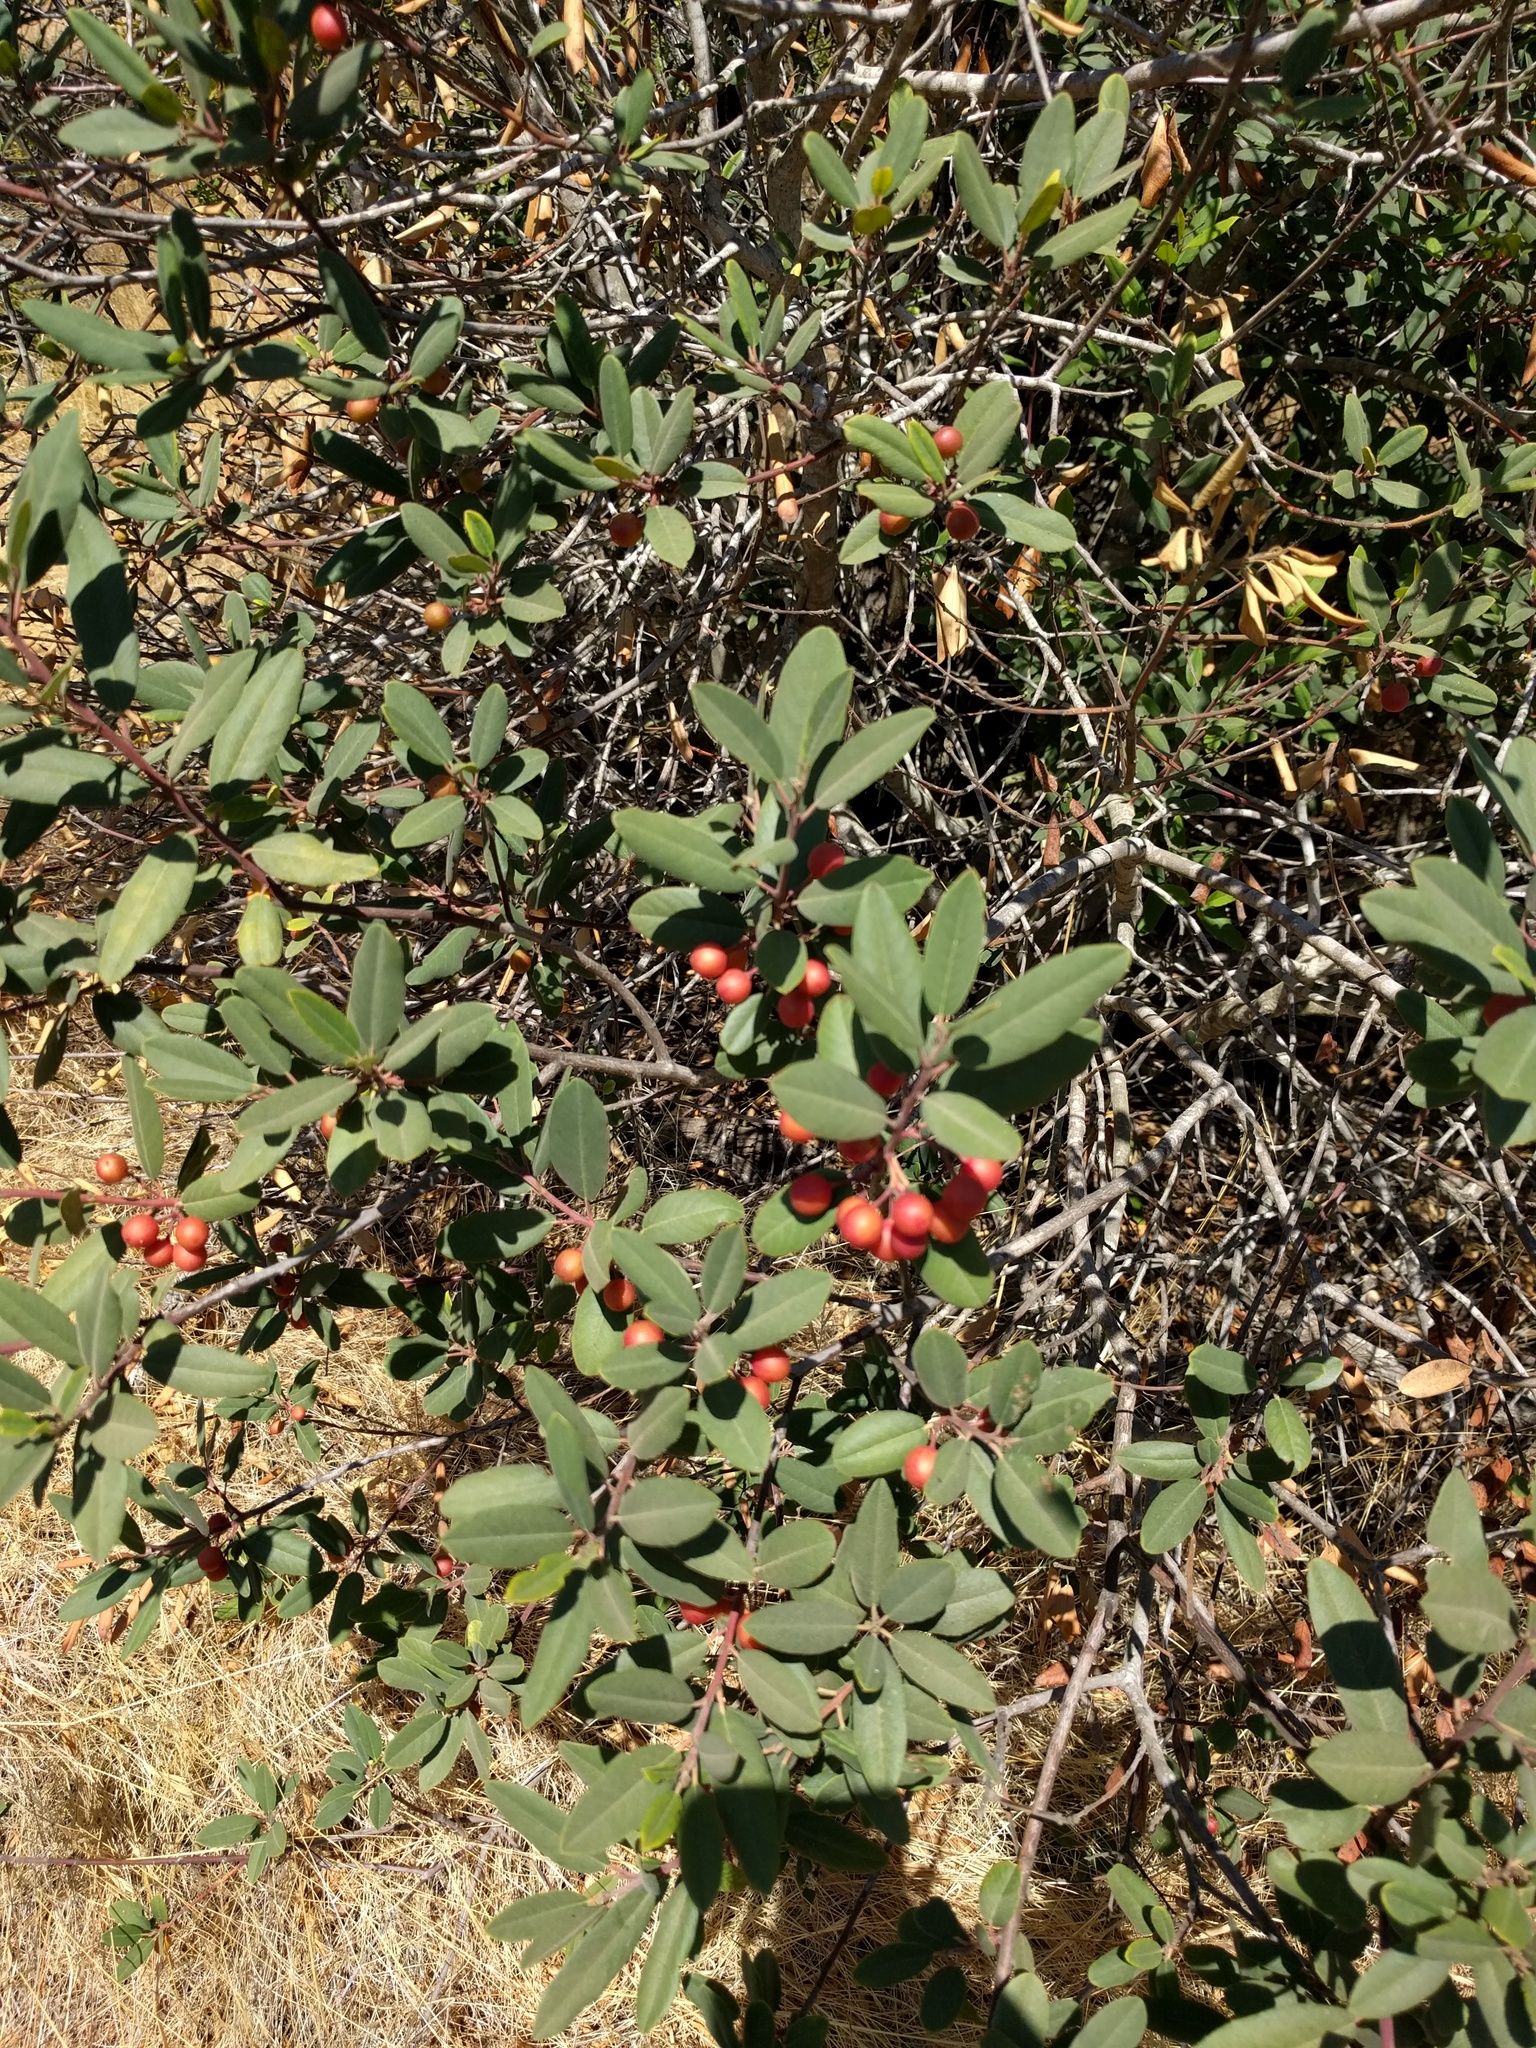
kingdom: Plantae
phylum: Tracheophyta
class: Magnoliopsida
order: Rosales
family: Rhamnaceae
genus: Frangula
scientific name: Frangula californica
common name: California buckthorn
